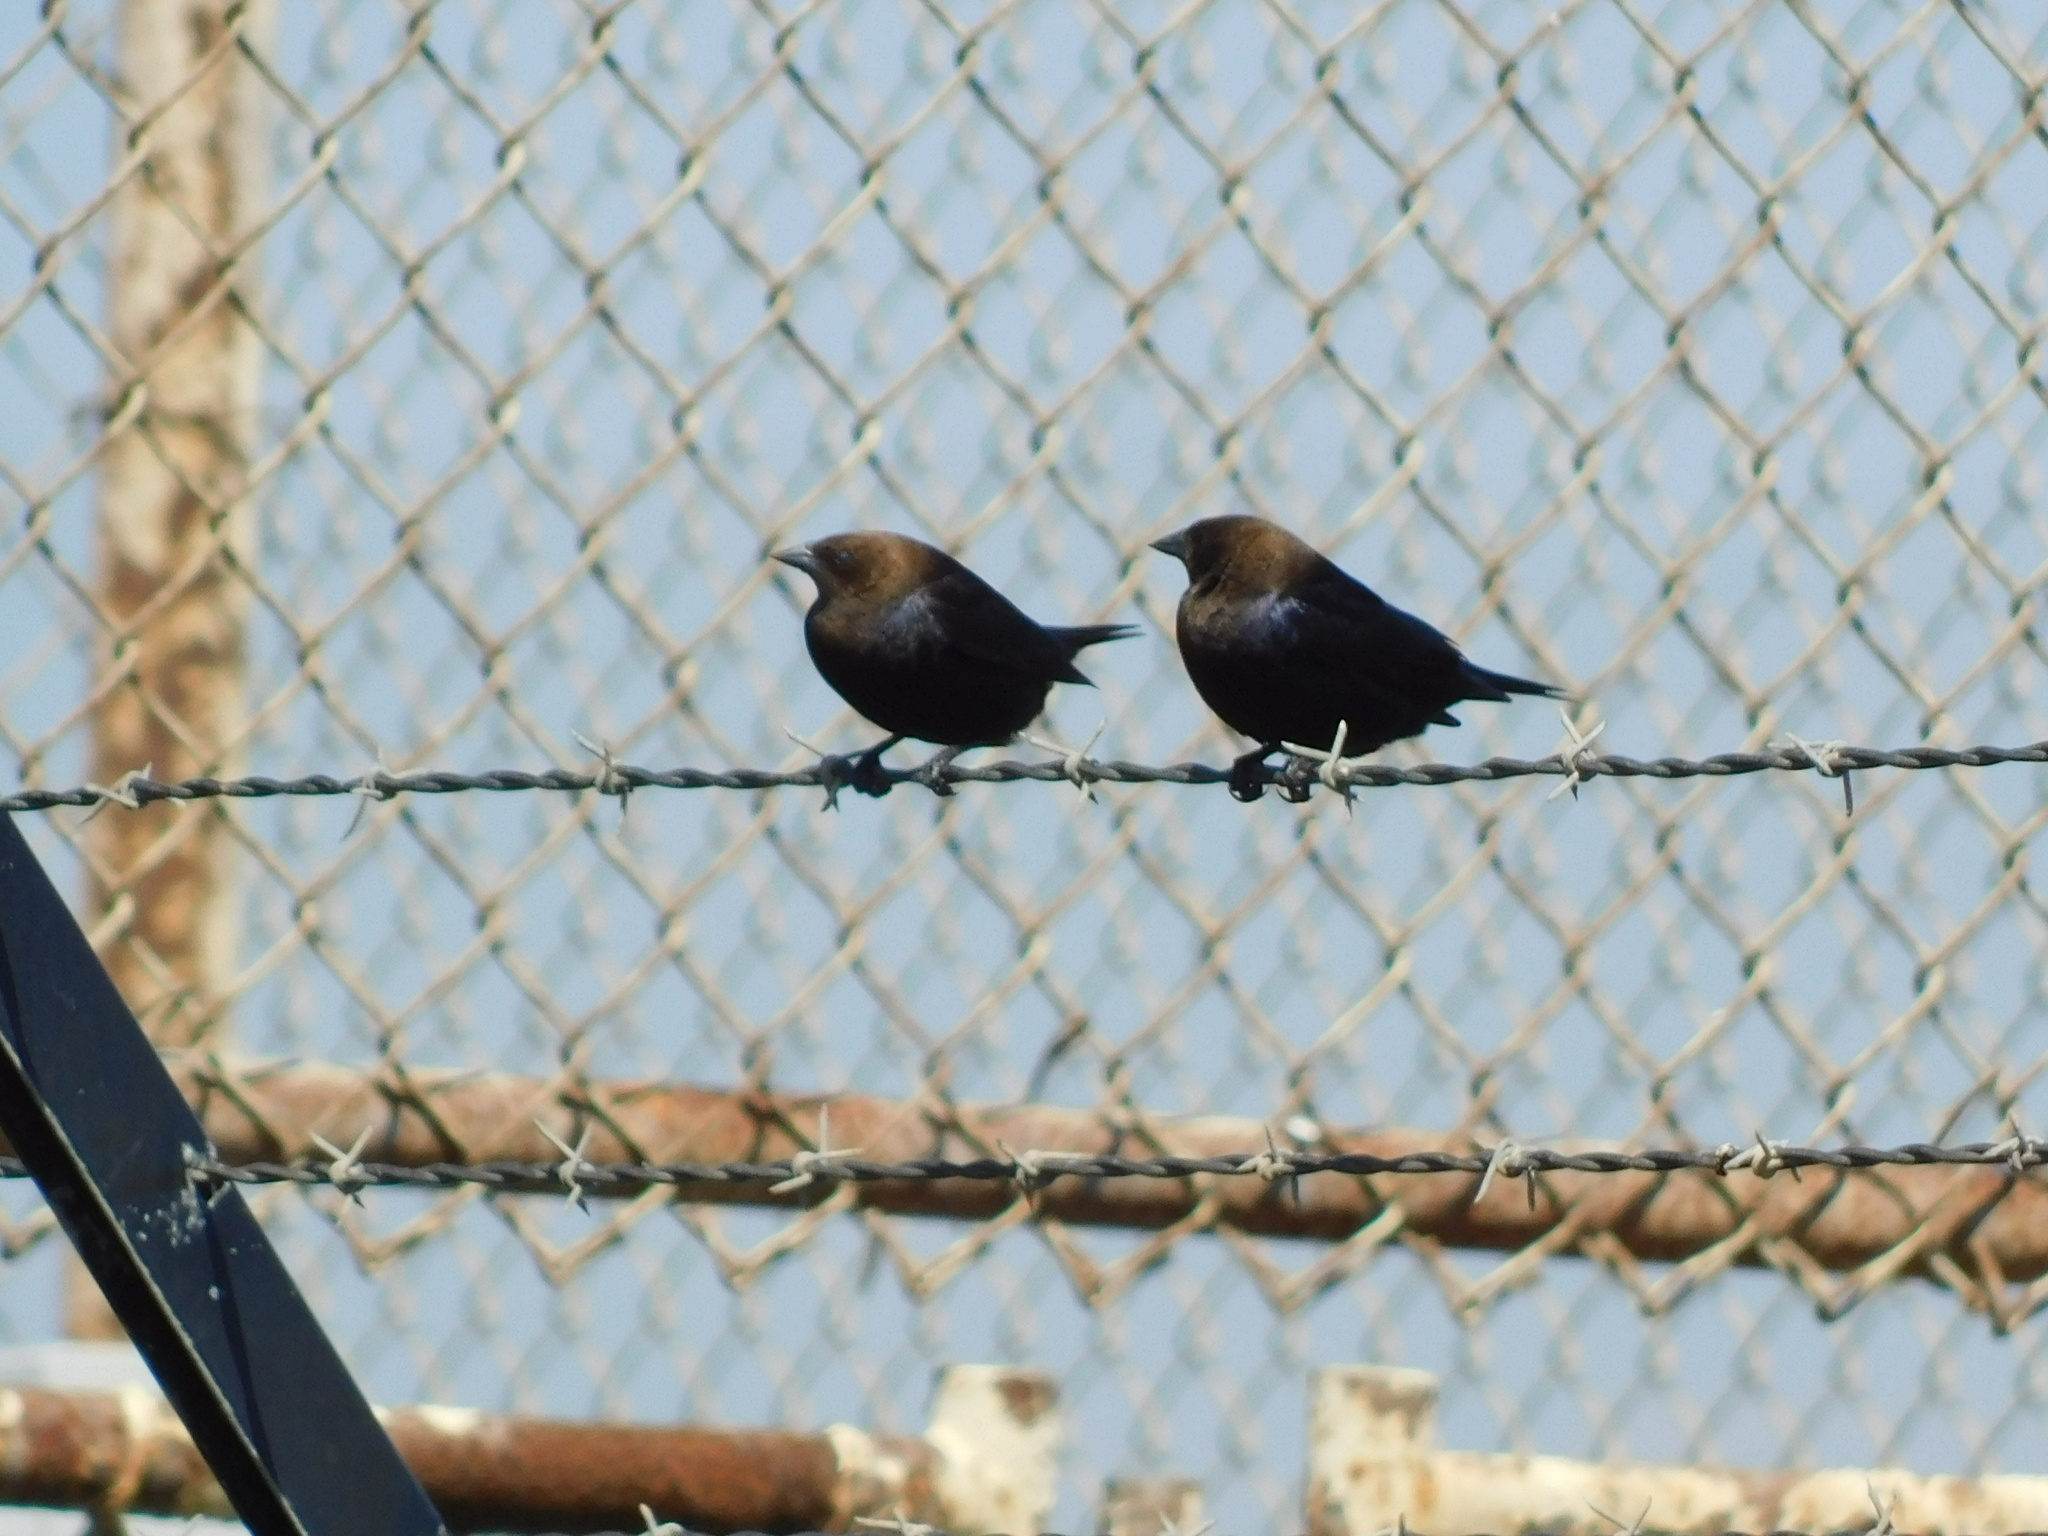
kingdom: Animalia
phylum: Chordata
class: Aves
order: Passeriformes
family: Icteridae
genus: Molothrus
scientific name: Molothrus ater
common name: Brown-headed cowbird
